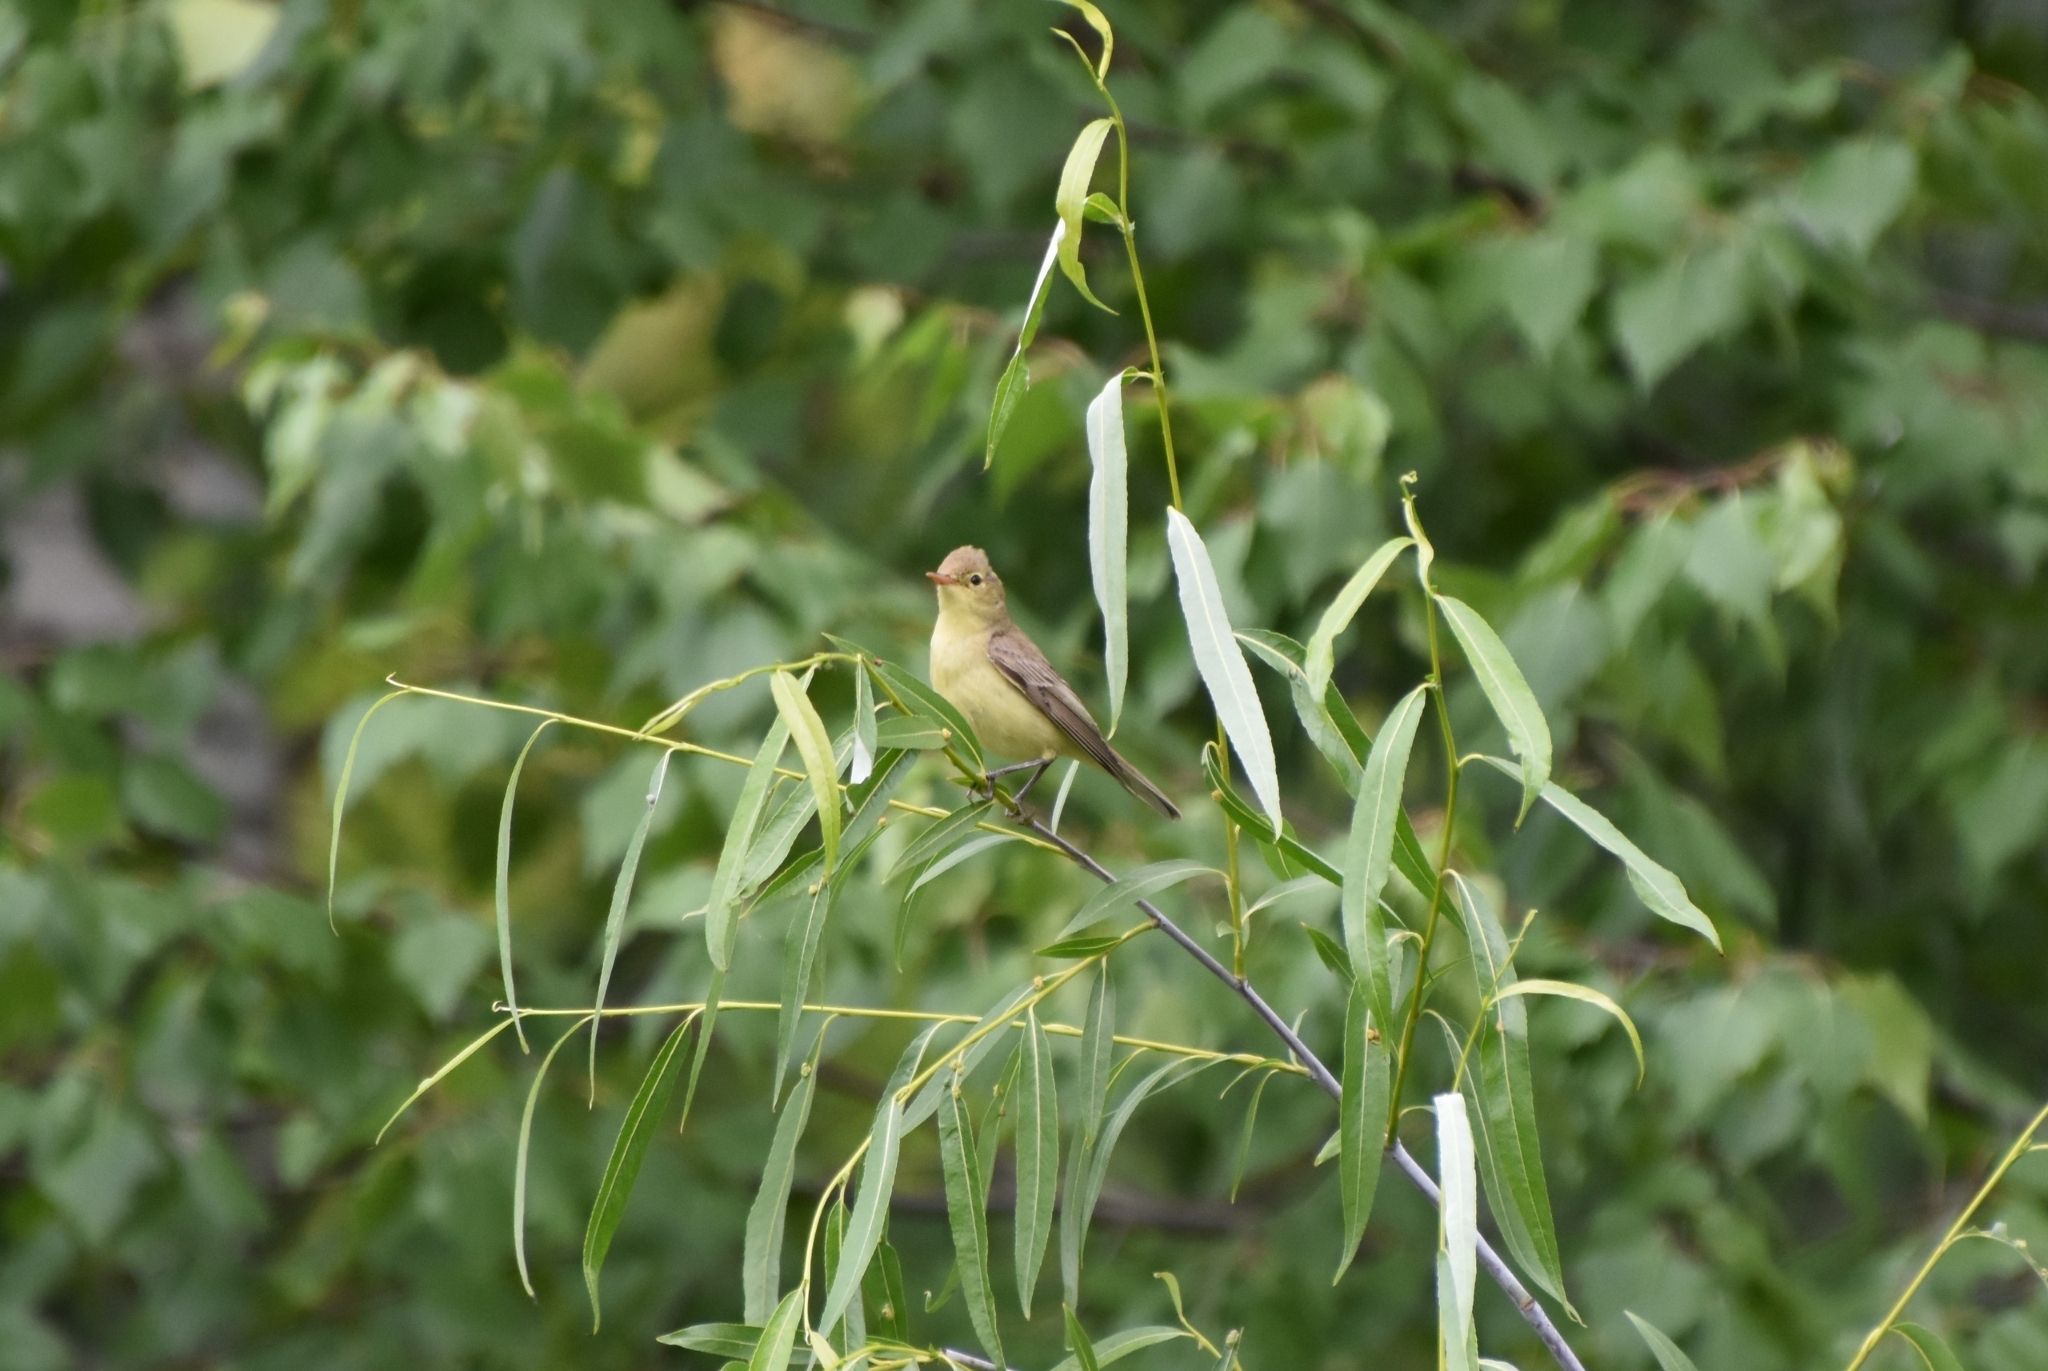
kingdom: Animalia
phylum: Chordata
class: Aves
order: Passeriformes
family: Acrocephalidae
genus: Hippolais
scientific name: Hippolais icterina
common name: Icterine warbler
